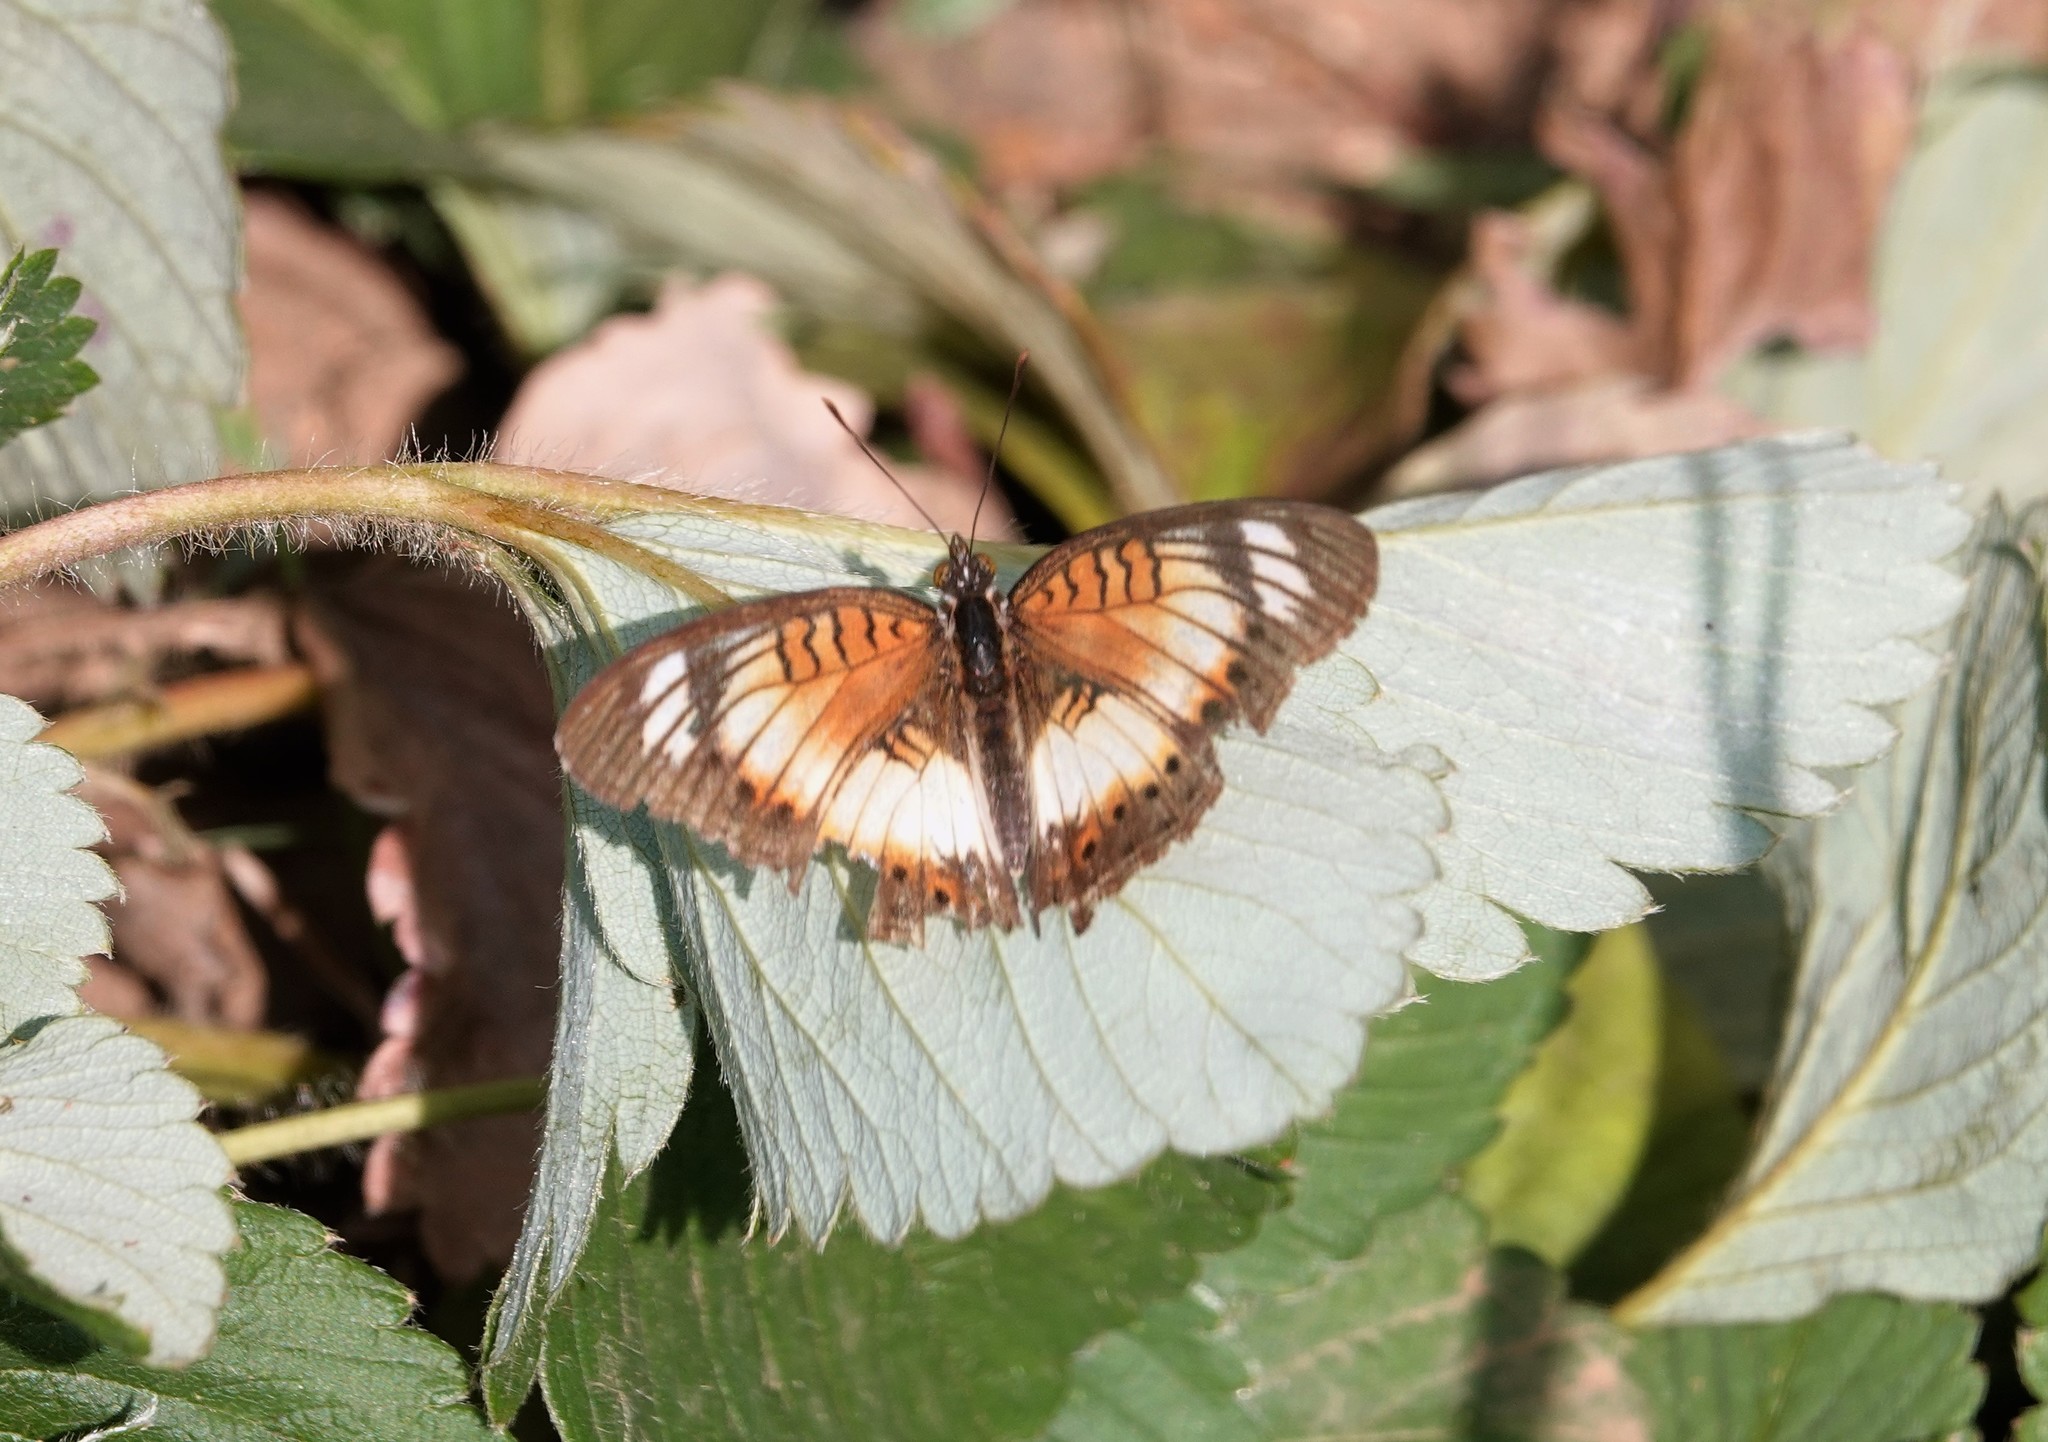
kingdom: Animalia
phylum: Arthropoda
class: Insecta
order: Lepidoptera
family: Nymphalidae
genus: Junonia
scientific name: Junonia sophia
